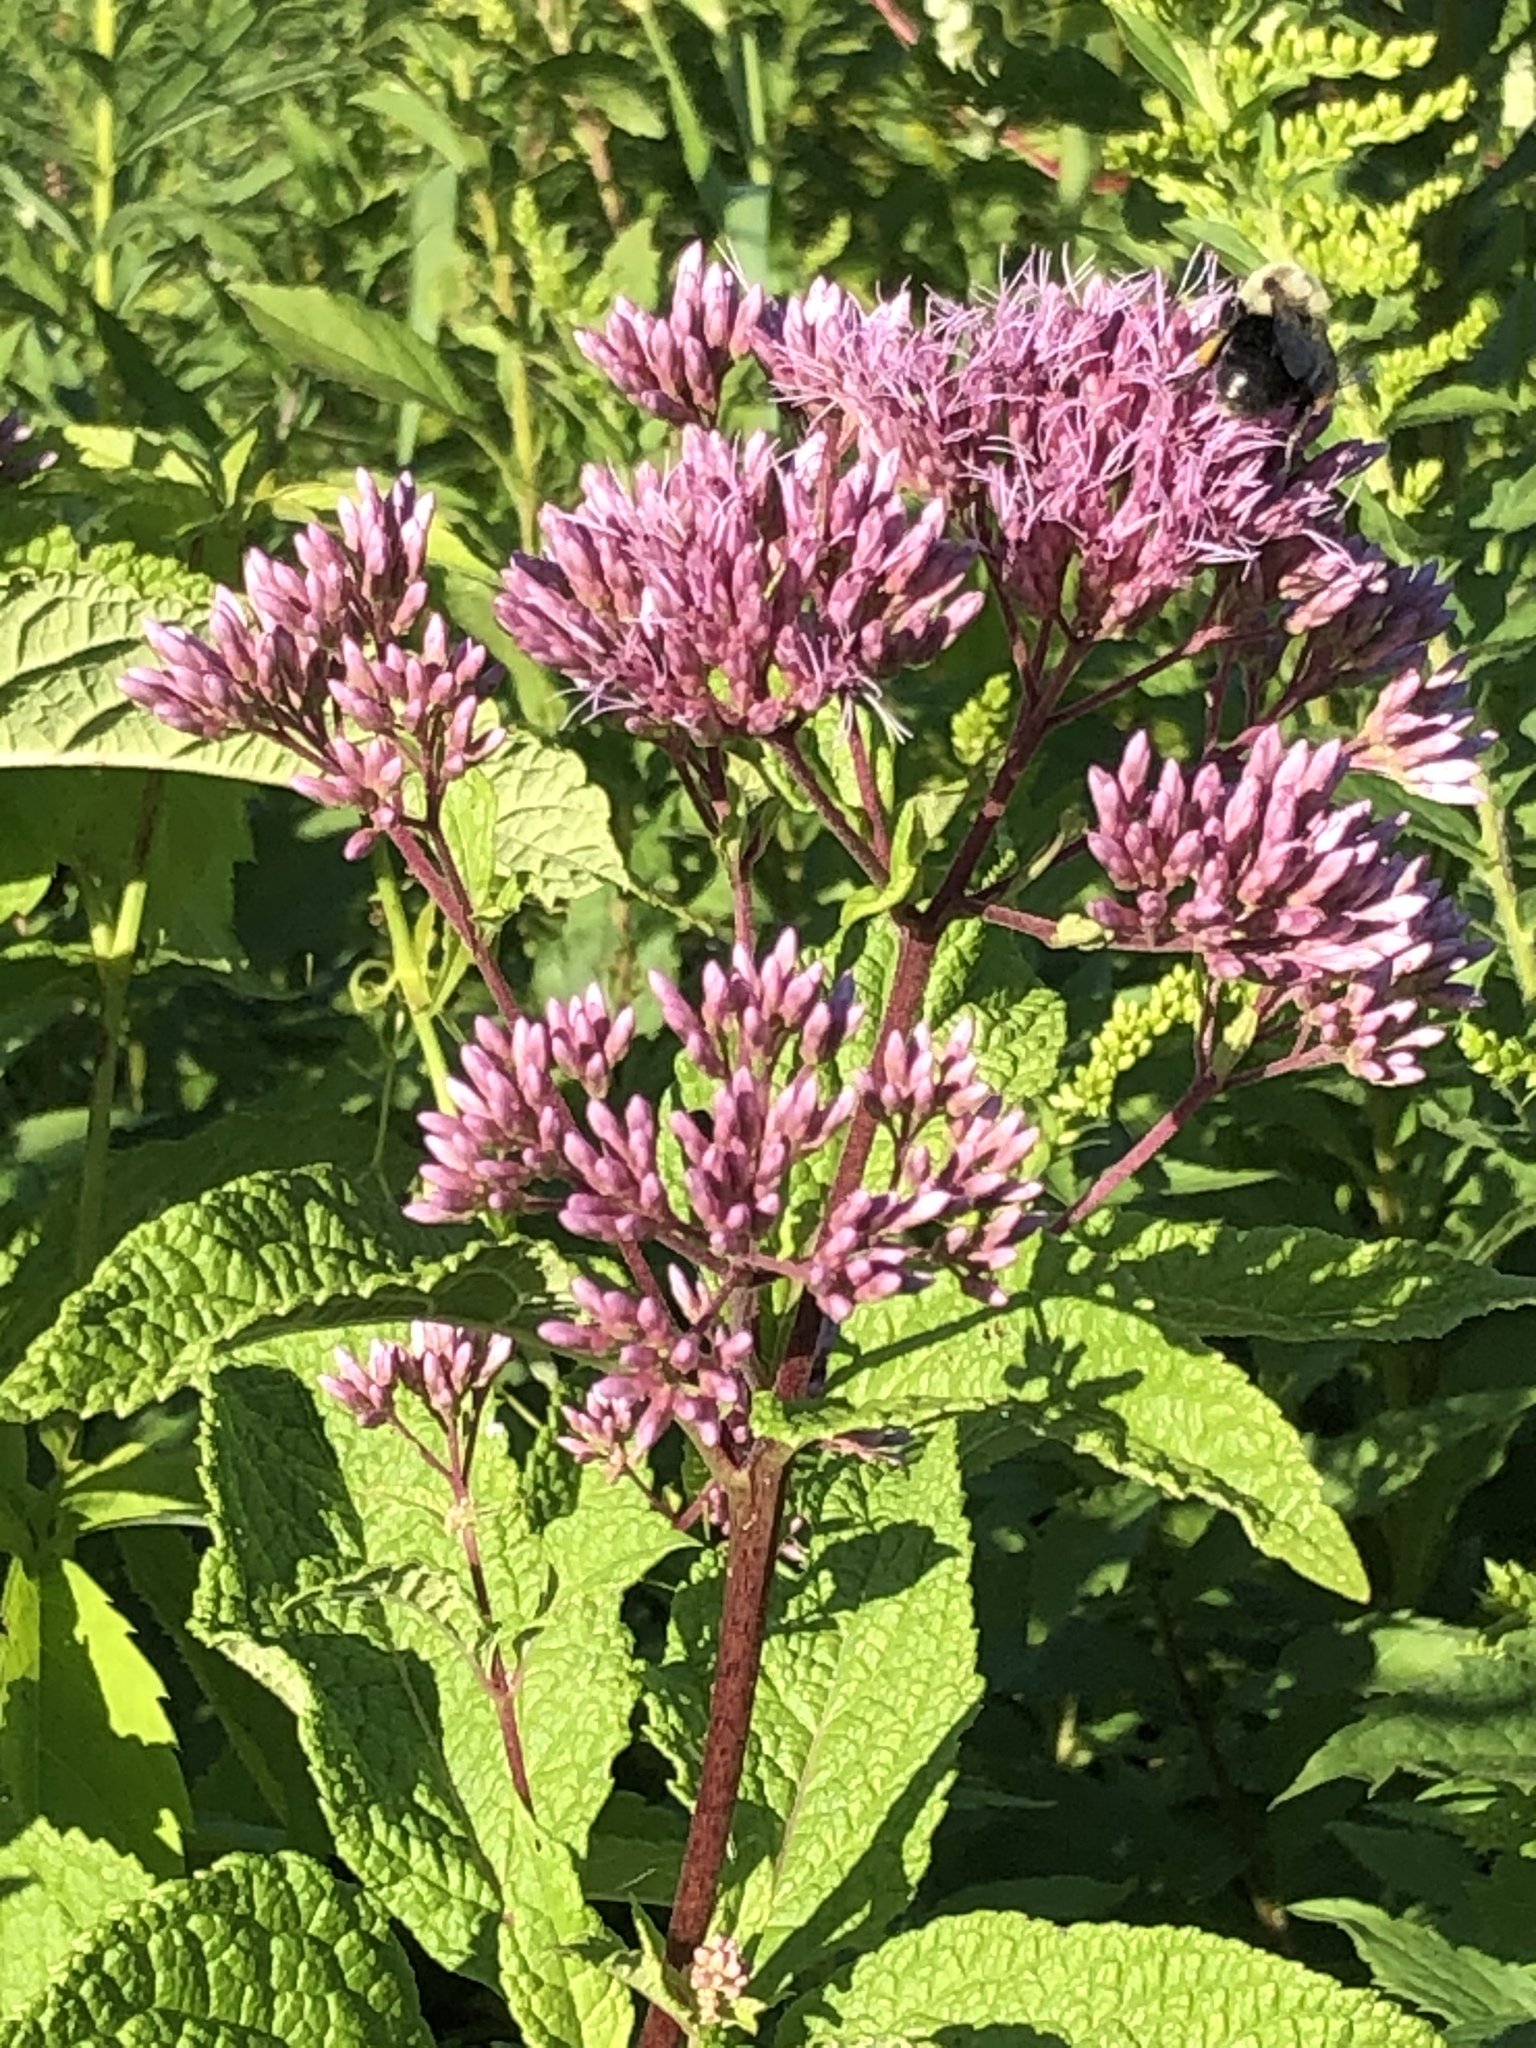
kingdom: Plantae
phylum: Tracheophyta
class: Magnoliopsida
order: Asterales
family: Asteraceae
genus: Eutrochium
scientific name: Eutrochium maculatum
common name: Spotted joe pye weed
